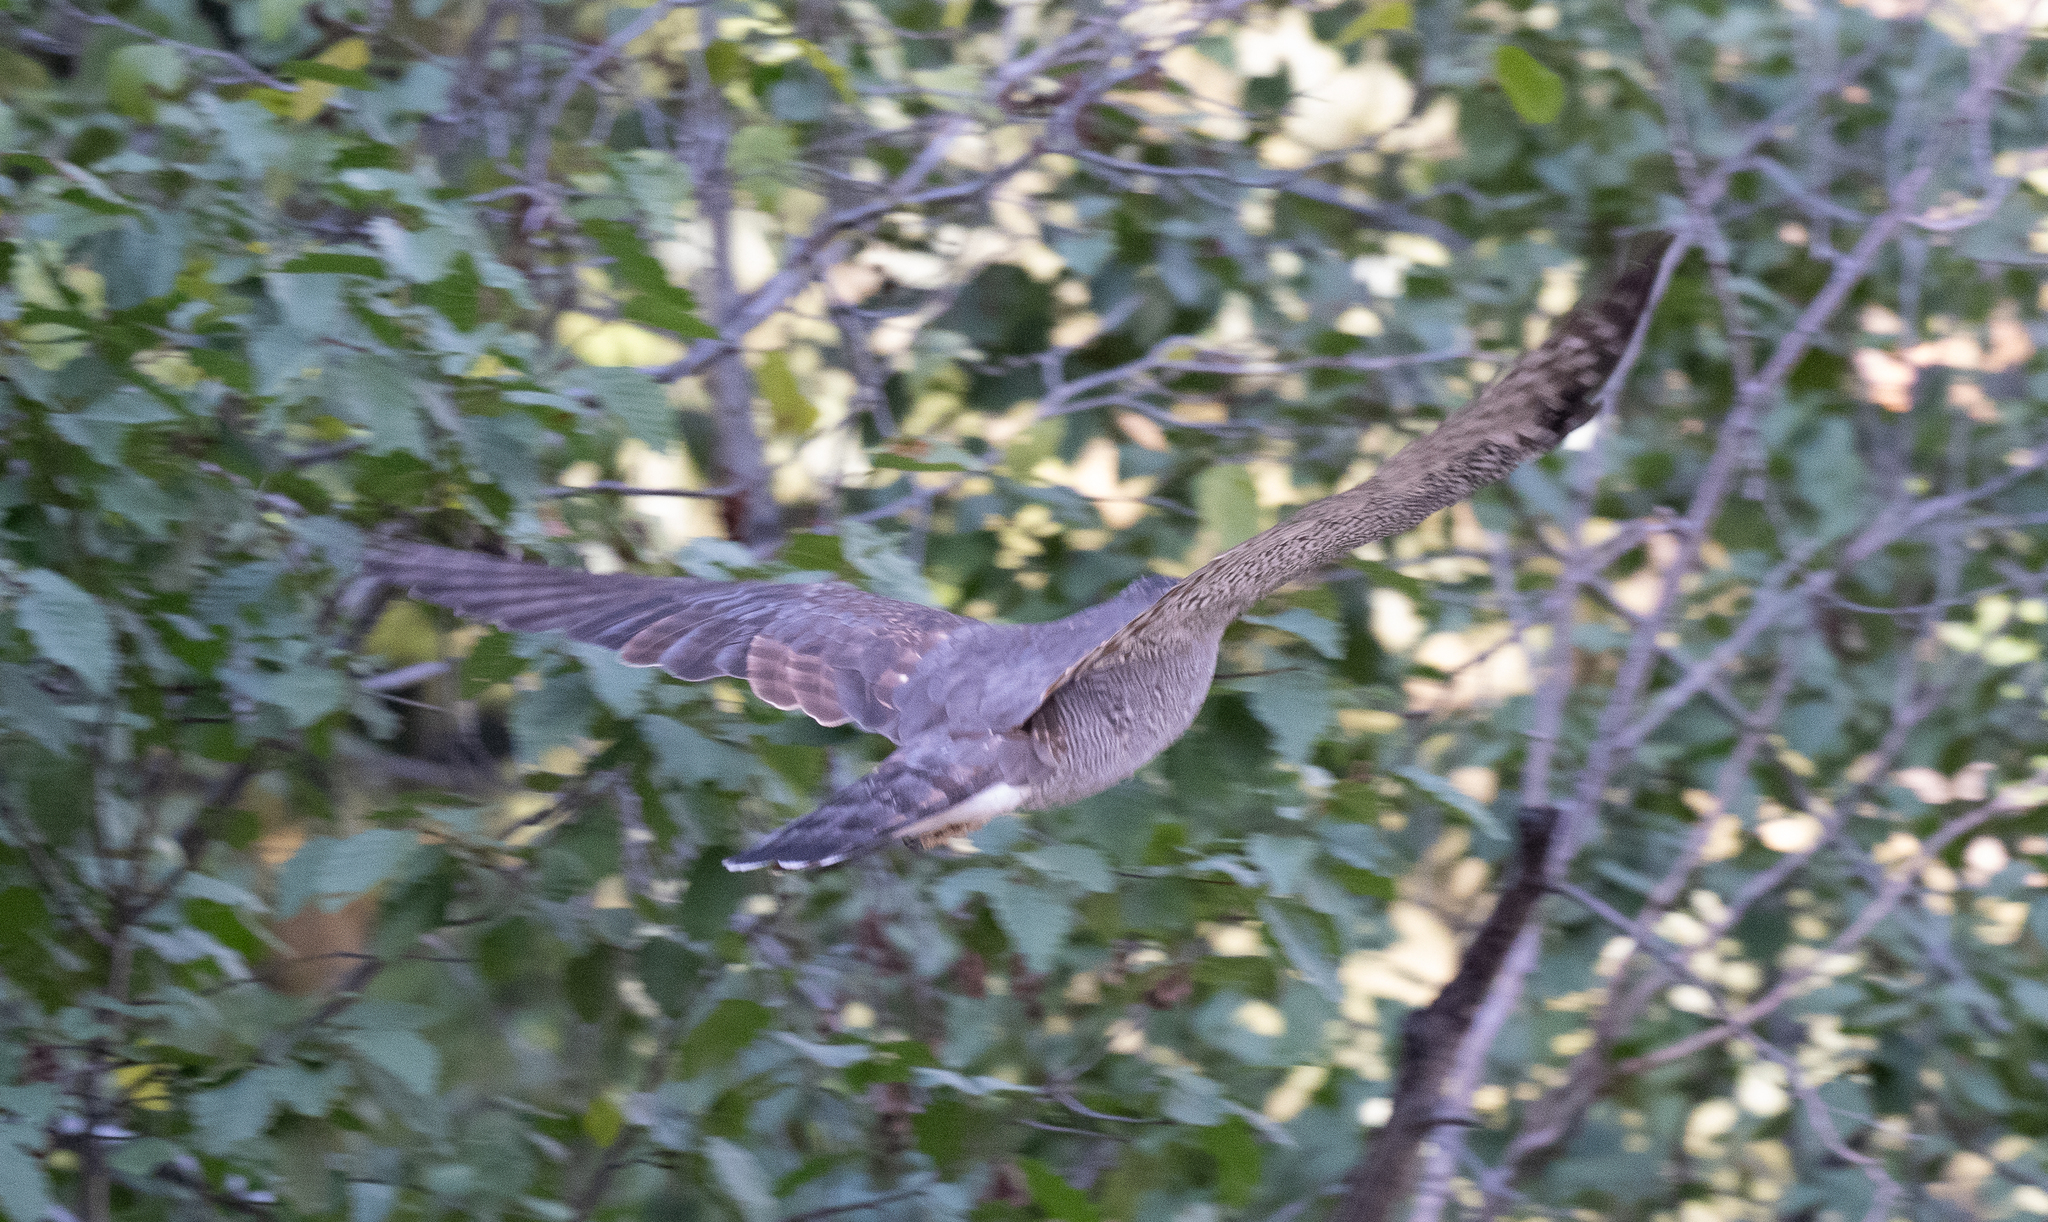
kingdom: Animalia
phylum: Chordata
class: Aves
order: Accipitriformes
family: Accipitridae
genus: Accipiter
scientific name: Accipiter gentilis
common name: Northern goshawk
